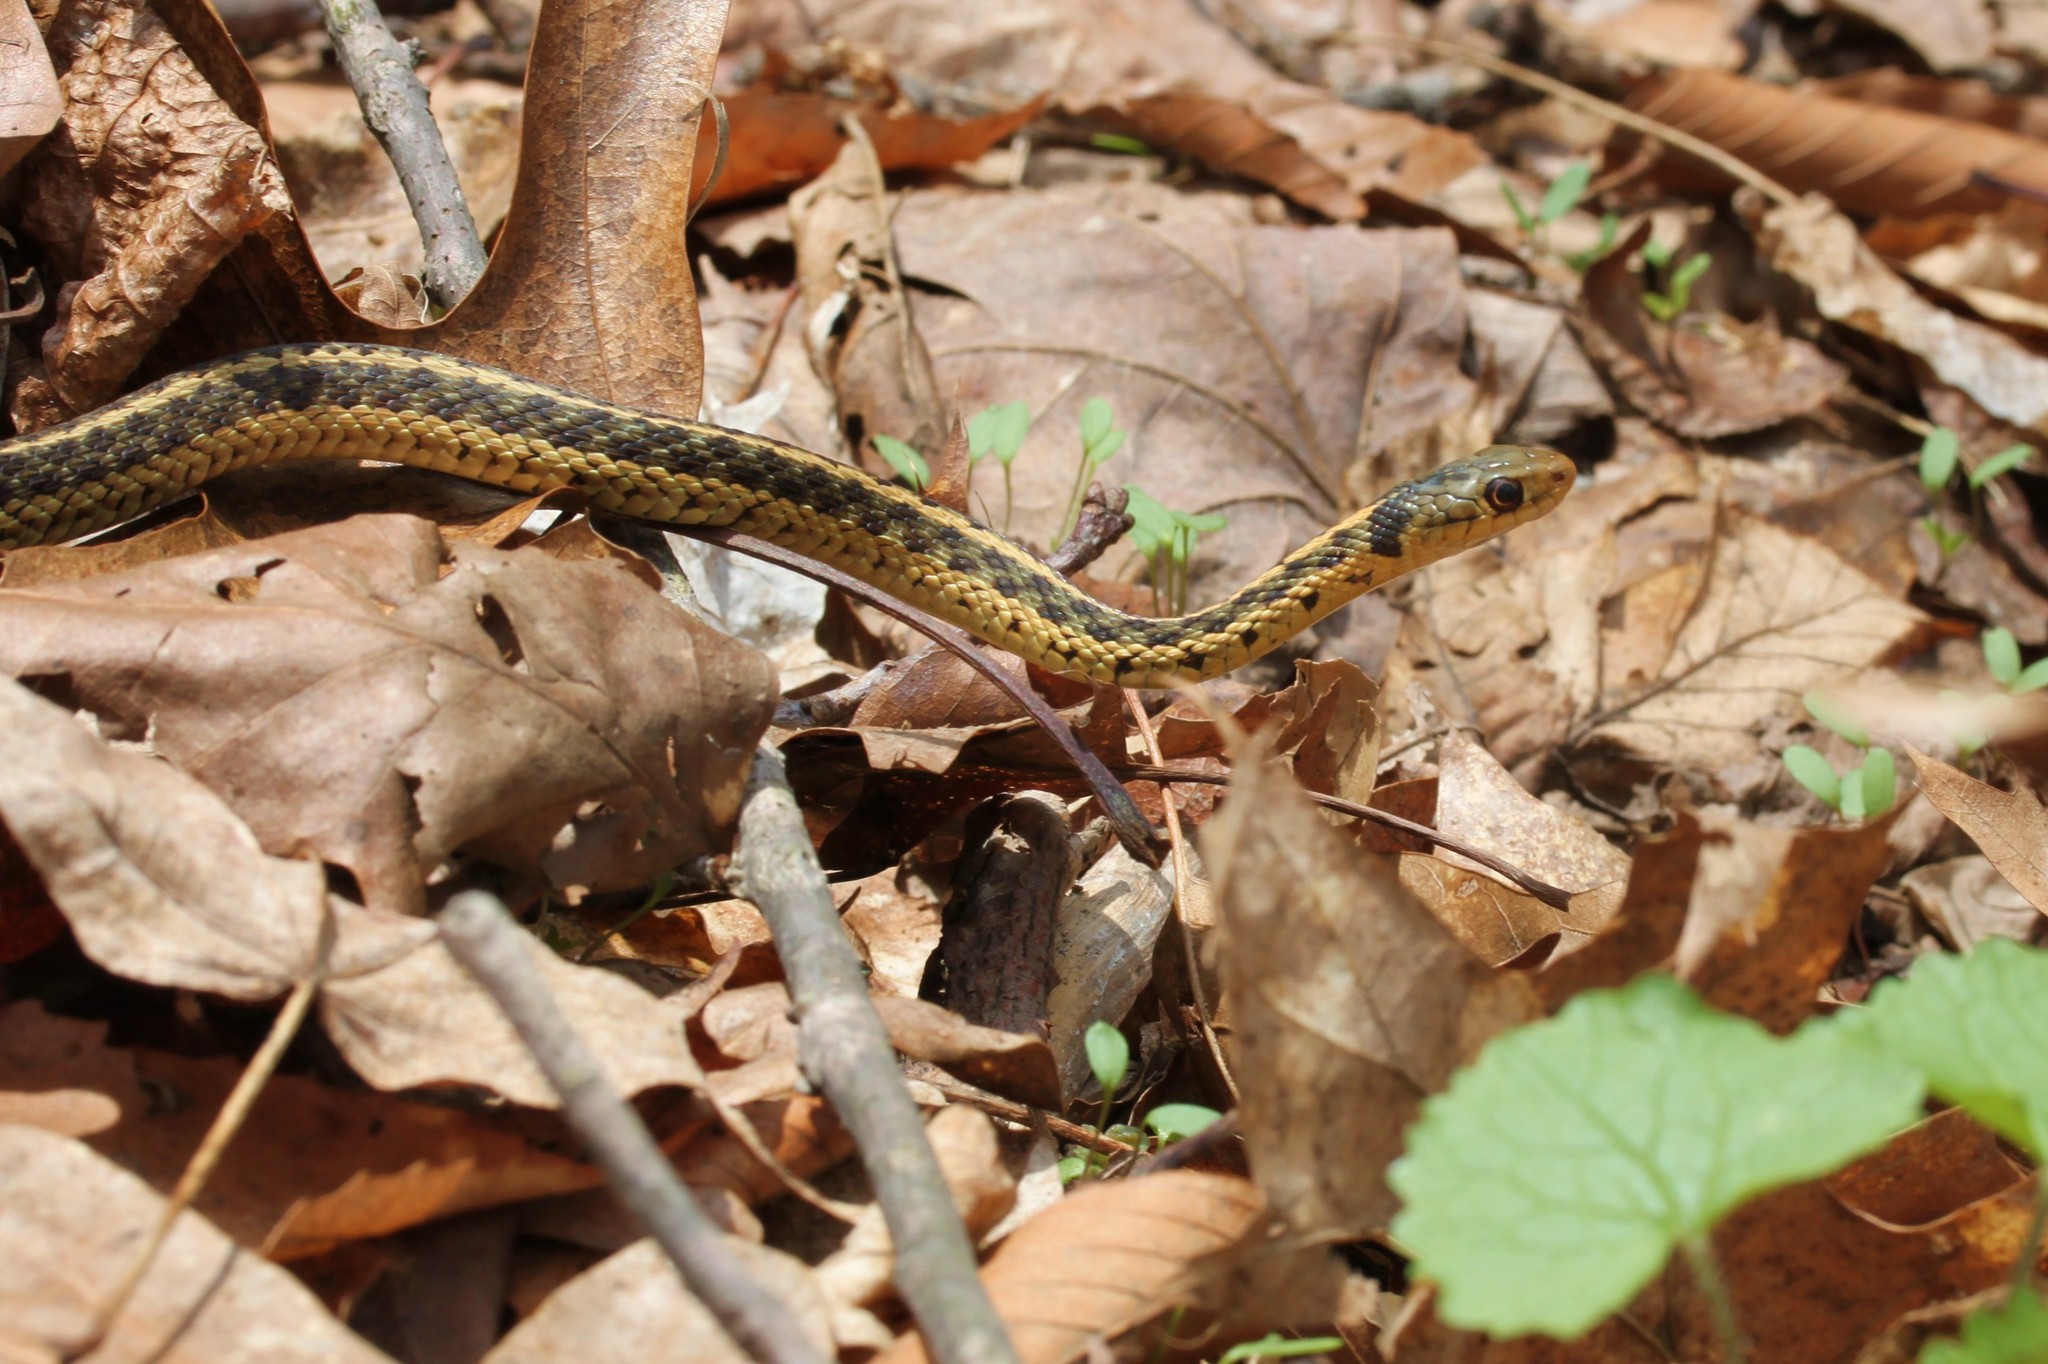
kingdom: Animalia
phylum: Chordata
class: Squamata
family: Colubridae
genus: Thamnophis
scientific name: Thamnophis sirtalis
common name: Common garter snake
